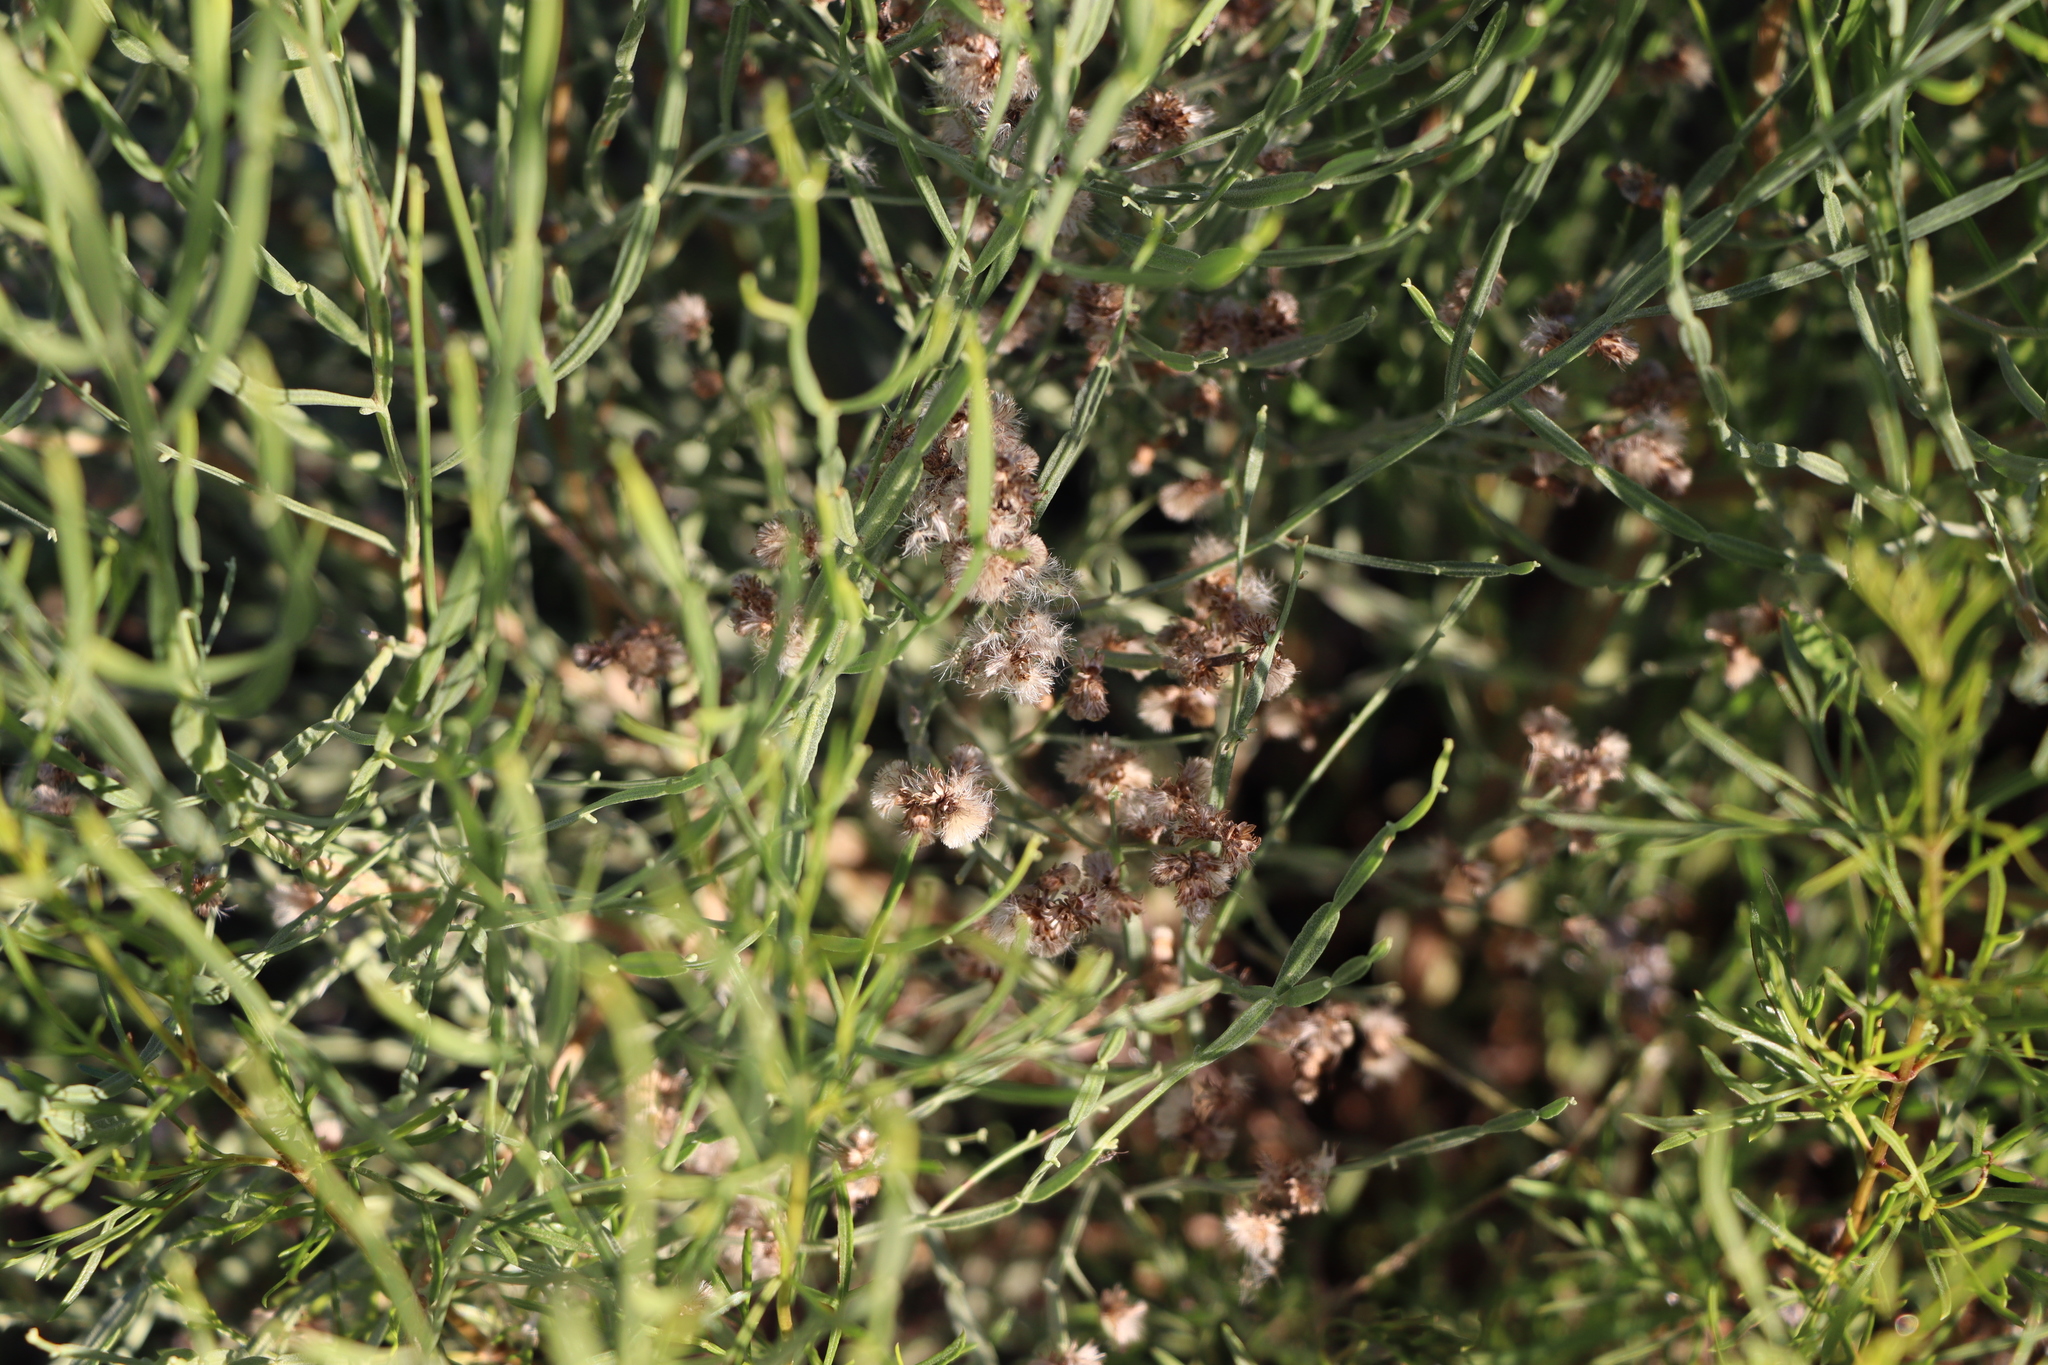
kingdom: Plantae
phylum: Tracheophyta
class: Magnoliopsida
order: Asterales
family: Asteraceae
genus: Baccharis
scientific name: Baccharis articulata
